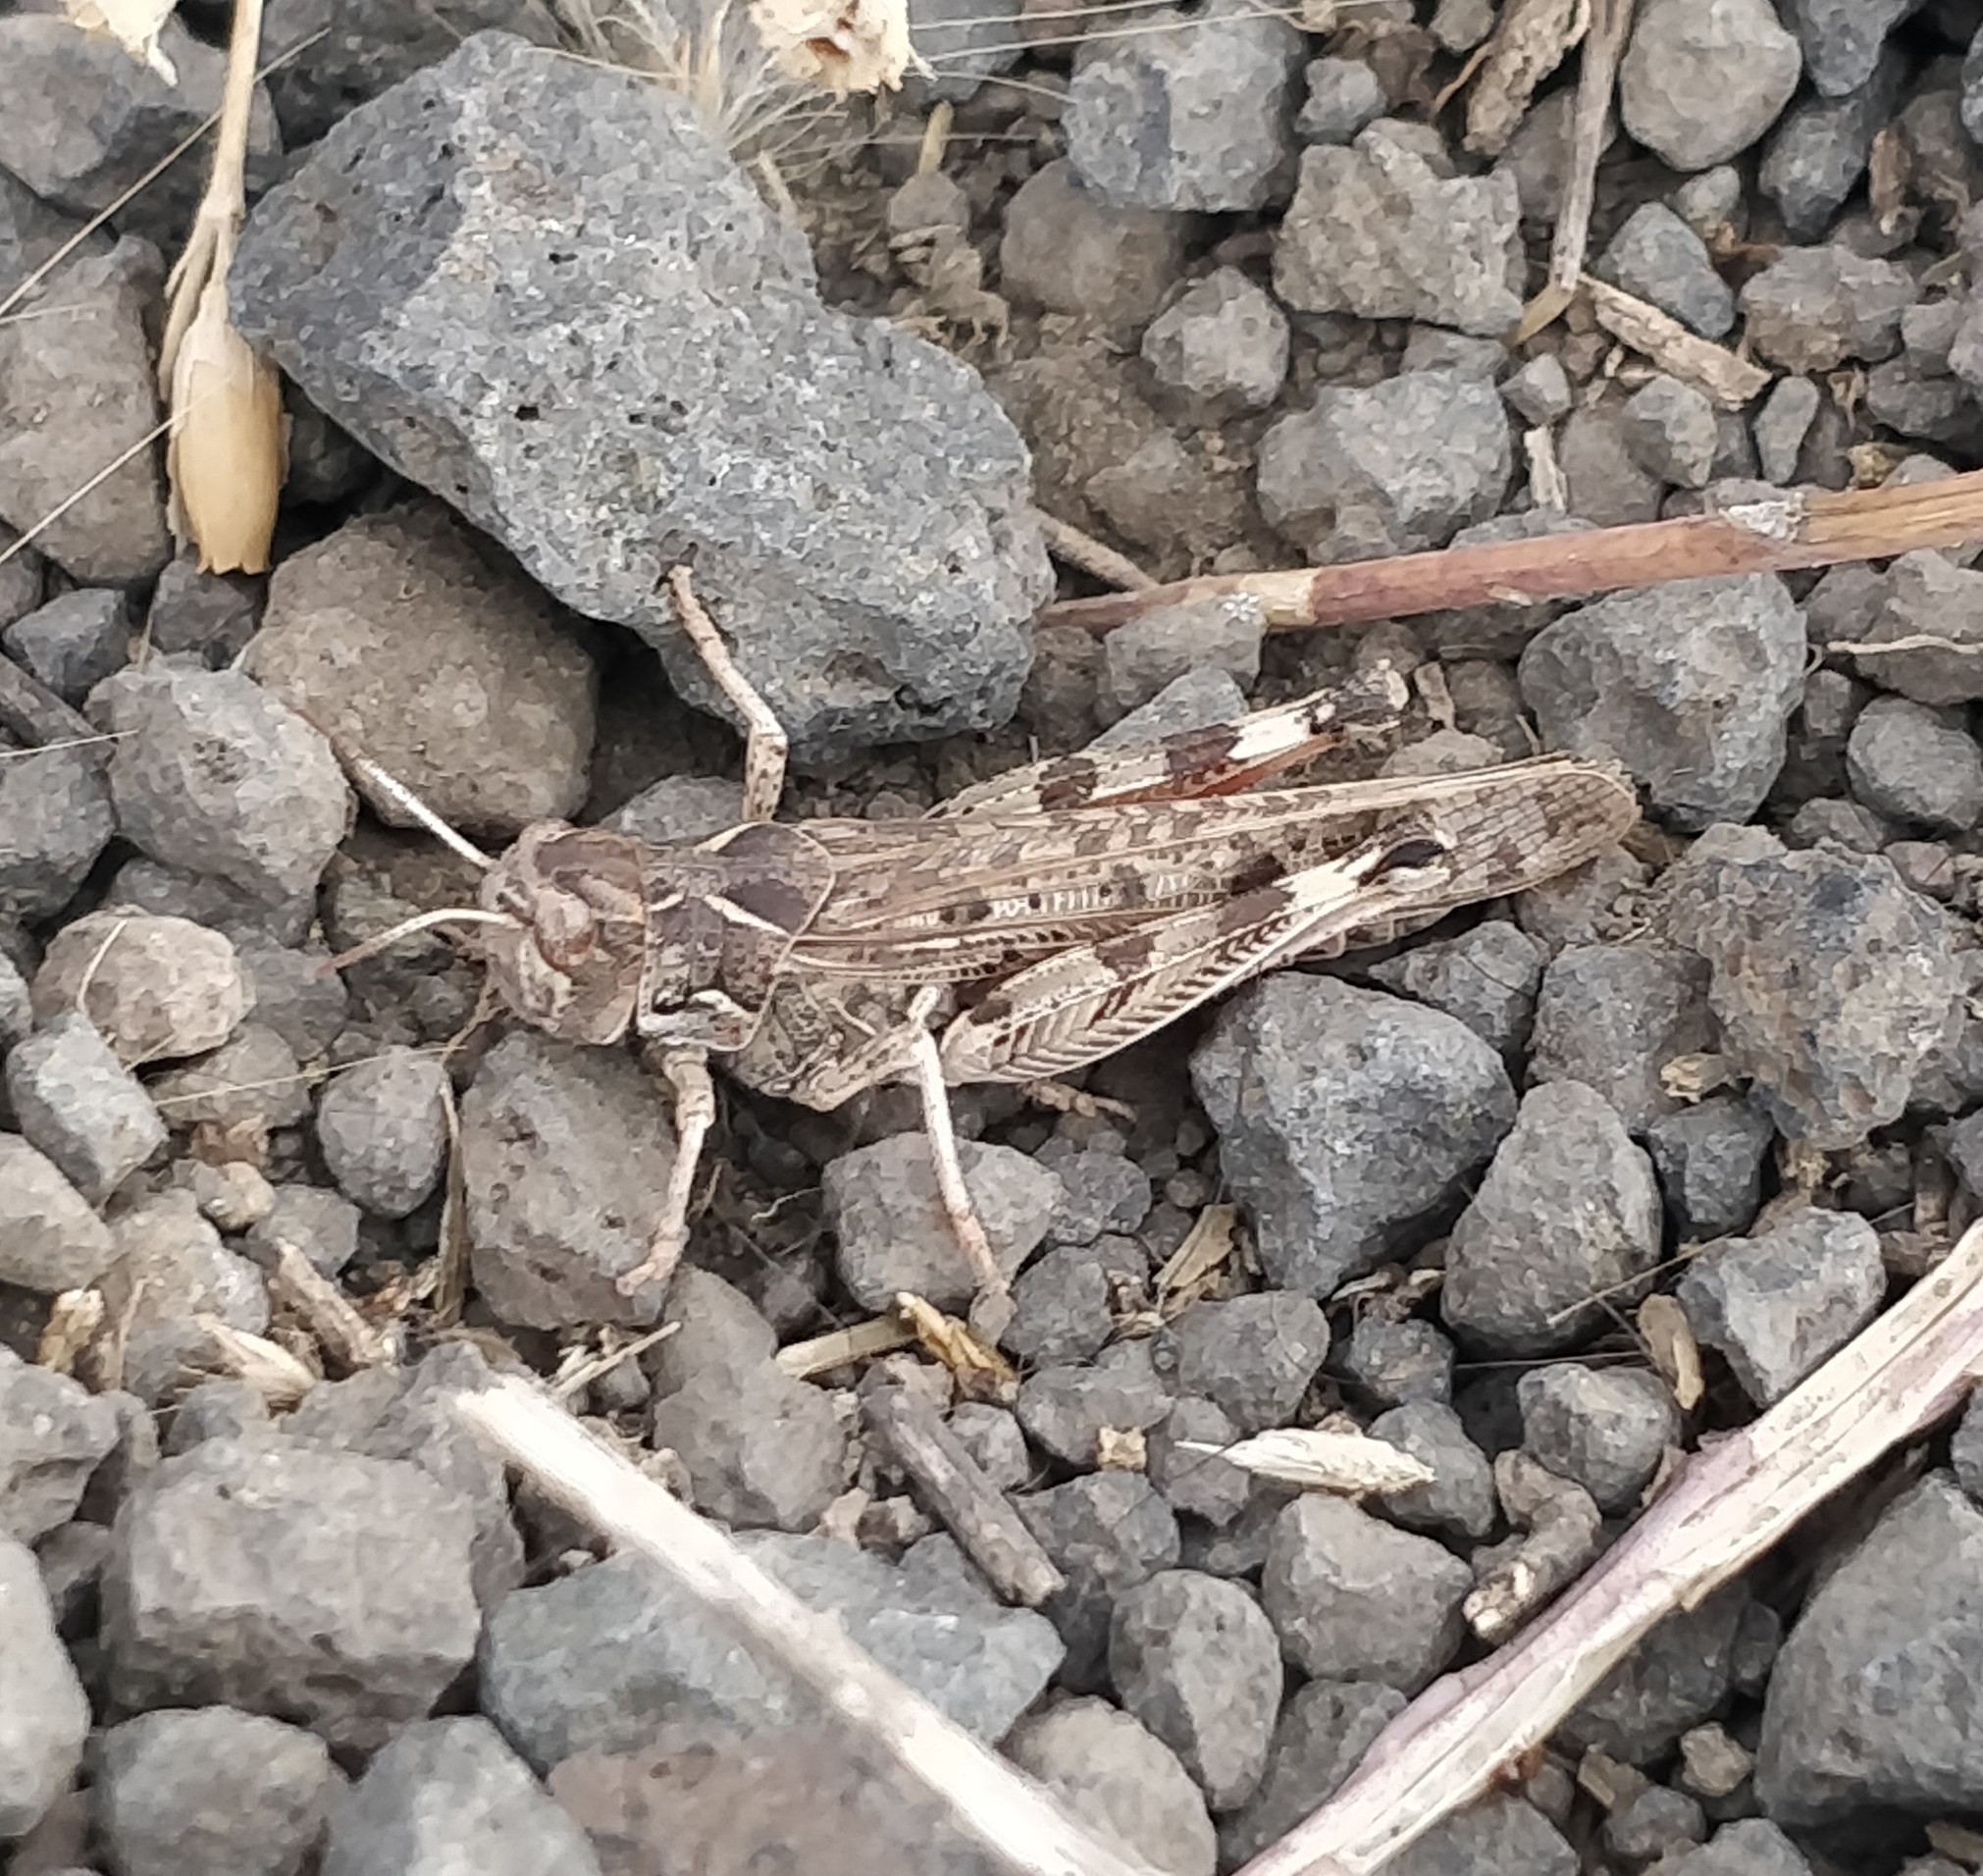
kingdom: Animalia
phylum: Arthropoda
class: Insecta
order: Orthoptera
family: Acrididae
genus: Dociostaurus
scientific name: Dociostaurus maroccanus
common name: Moroccan locust
